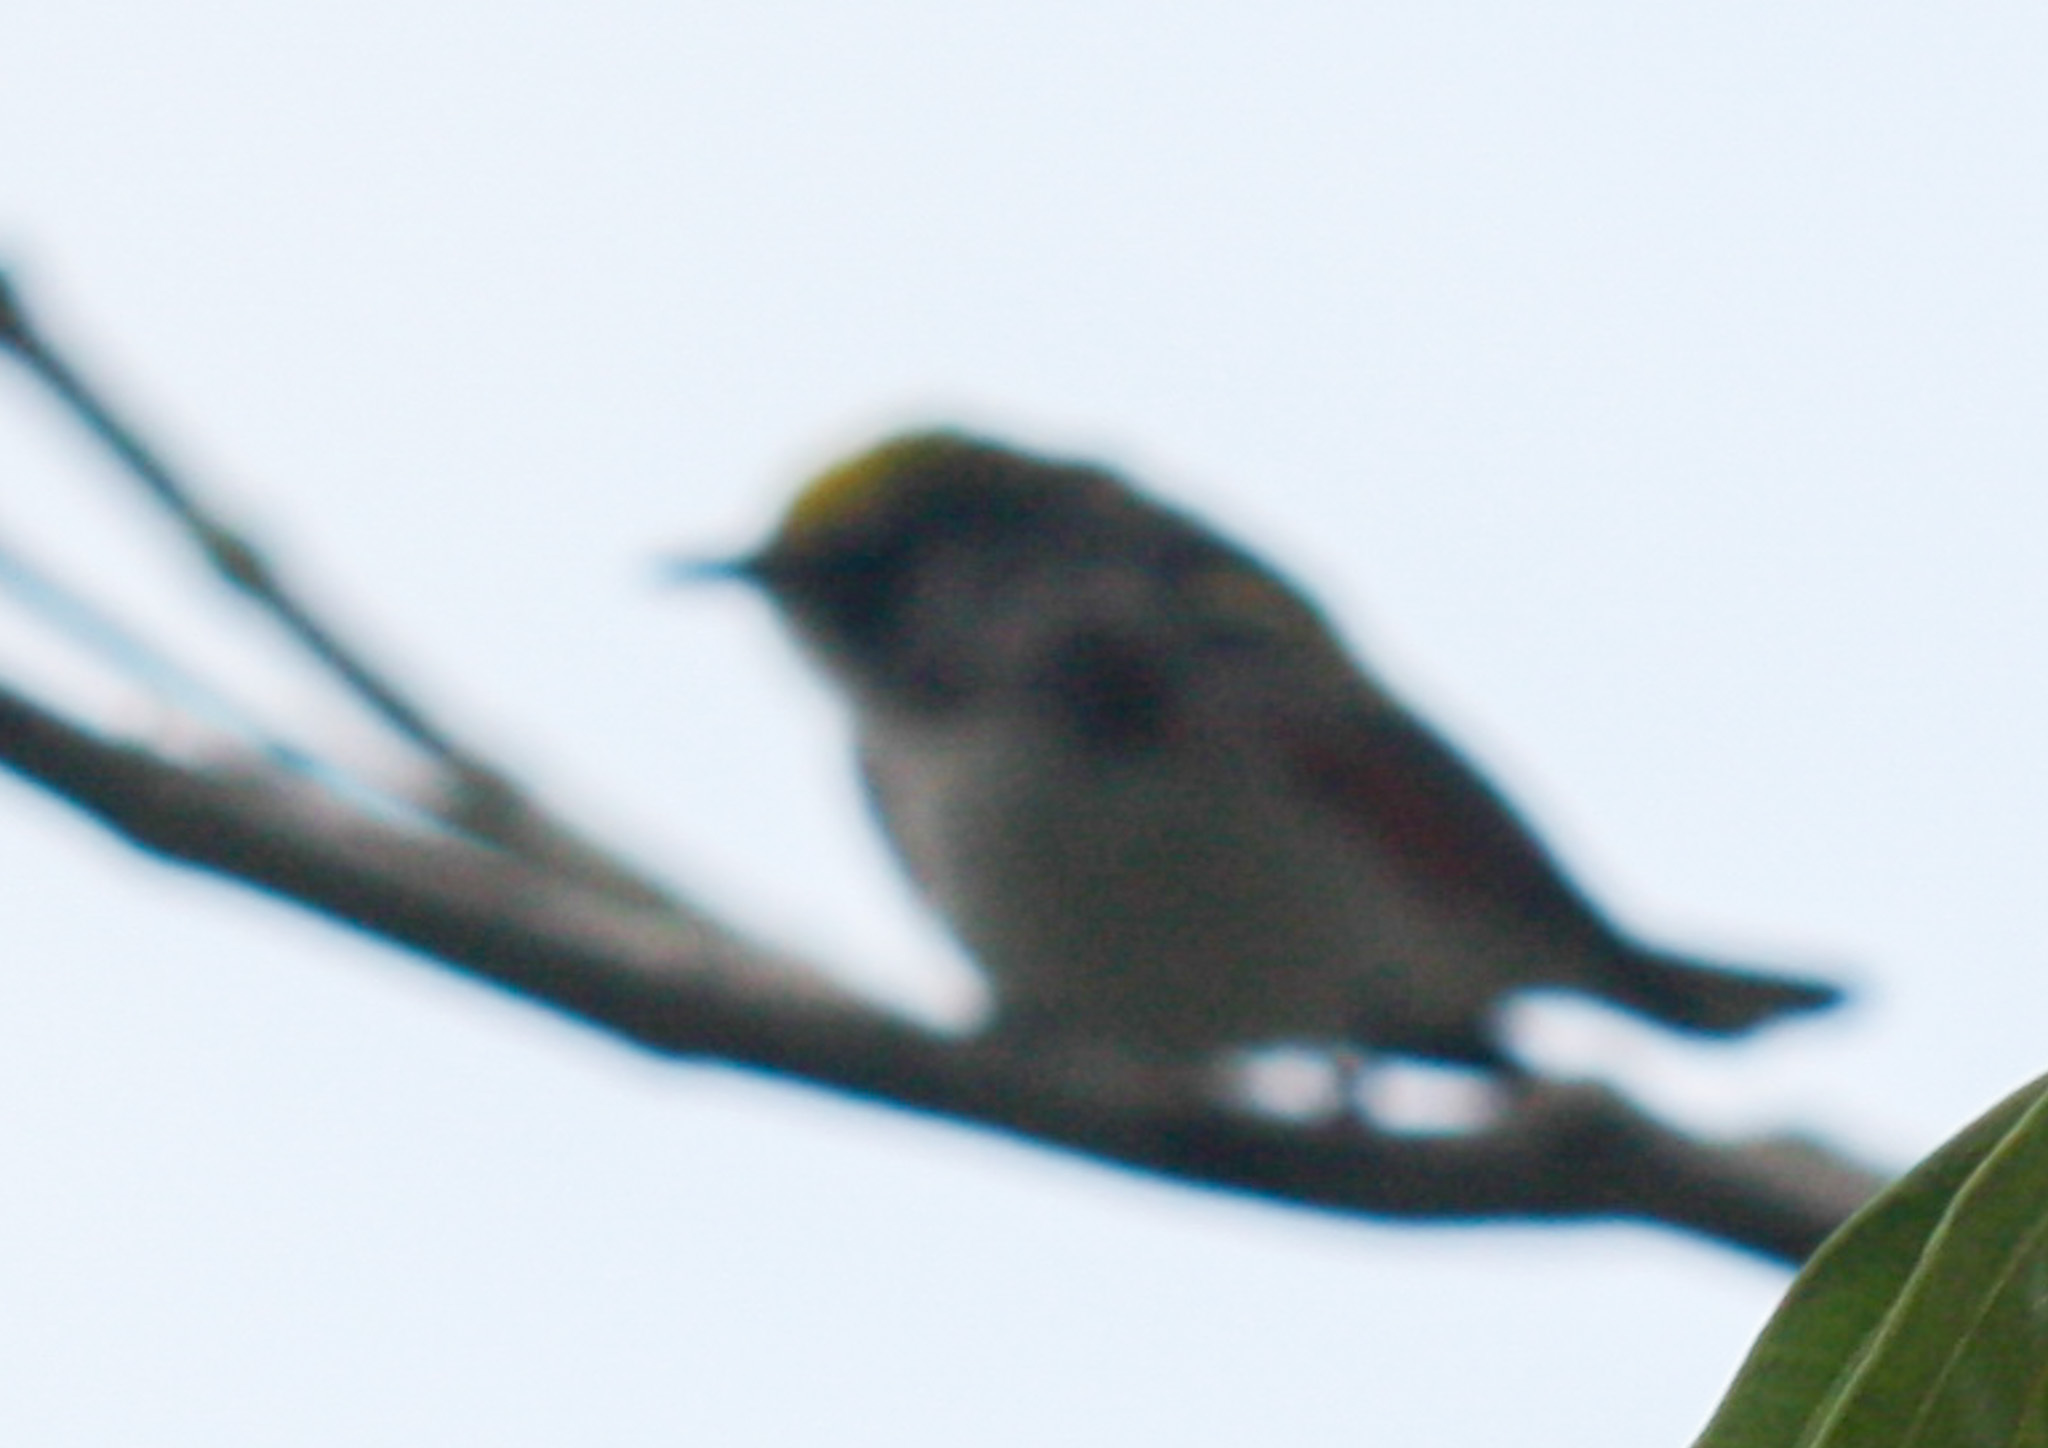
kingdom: Animalia
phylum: Chordata
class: Aves
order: Passeriformes
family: Parulidae
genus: Setophaga
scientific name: Setophaga pensylvanica
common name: Chestnut-sided warbler
